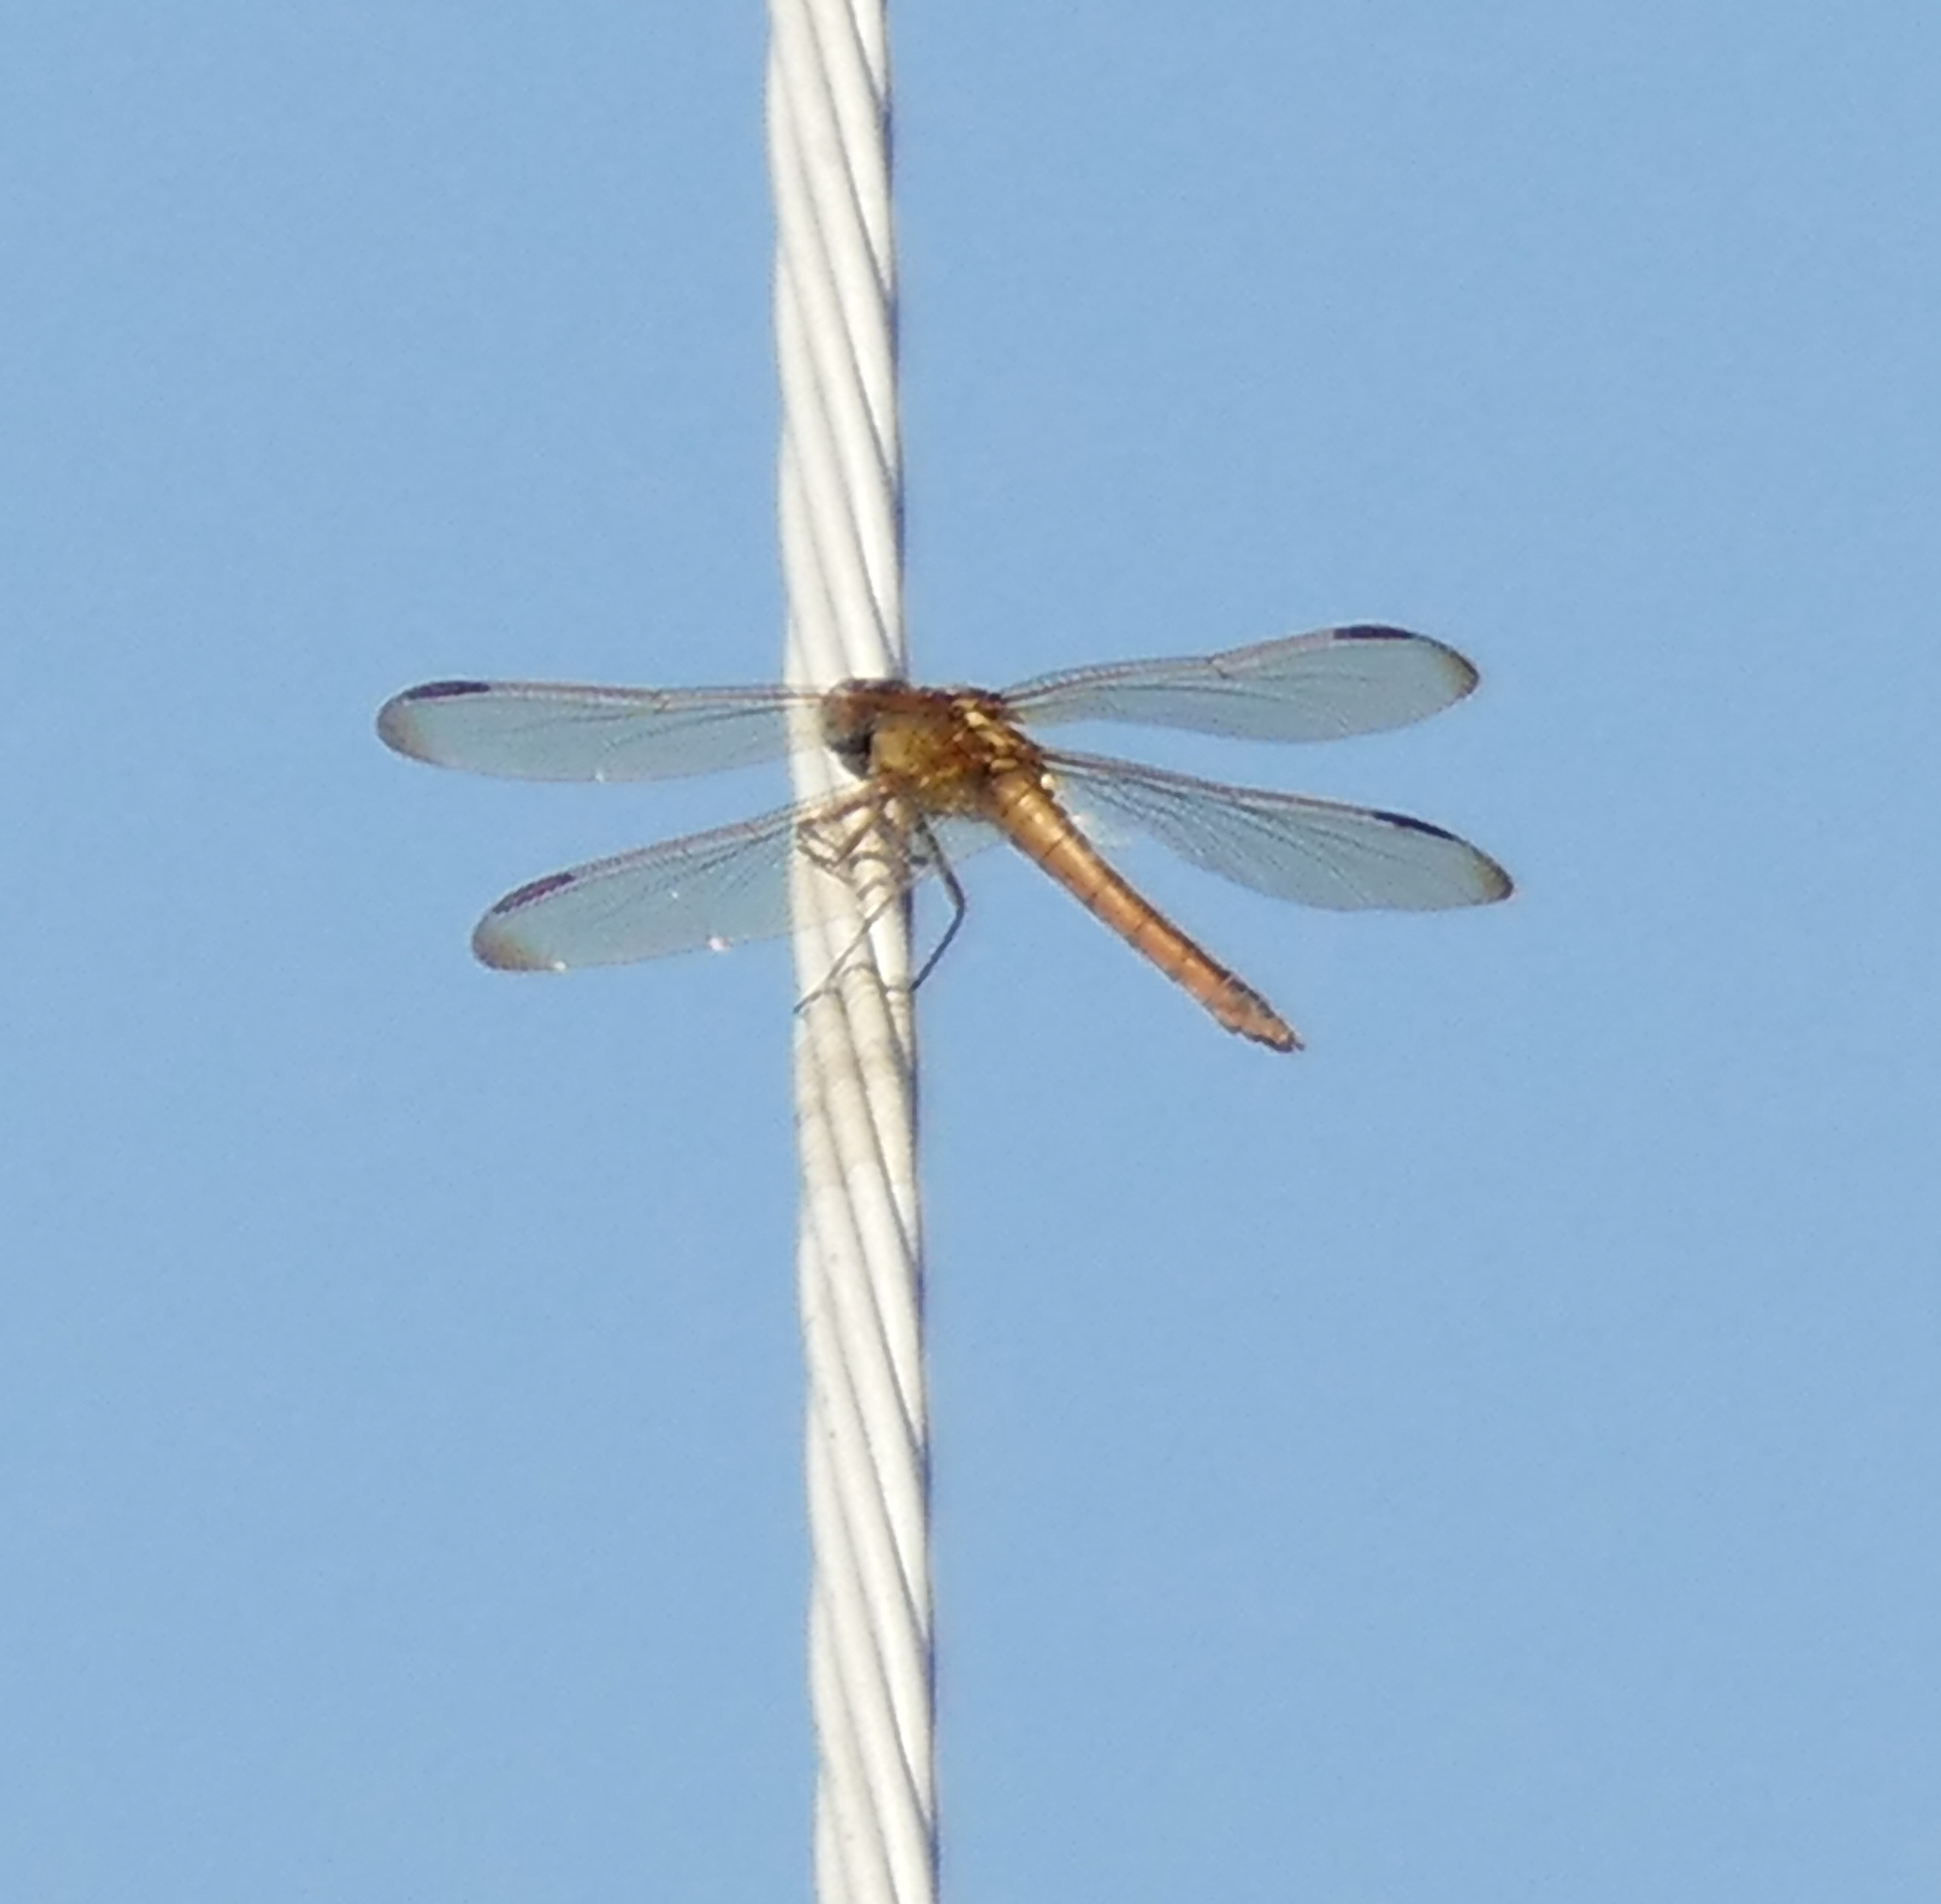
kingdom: Animalia
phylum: Arthropoda
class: Insecta
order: Odonata
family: Libellulidae
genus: Libellula
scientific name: Libellula needhami
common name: Needham's skimmer
